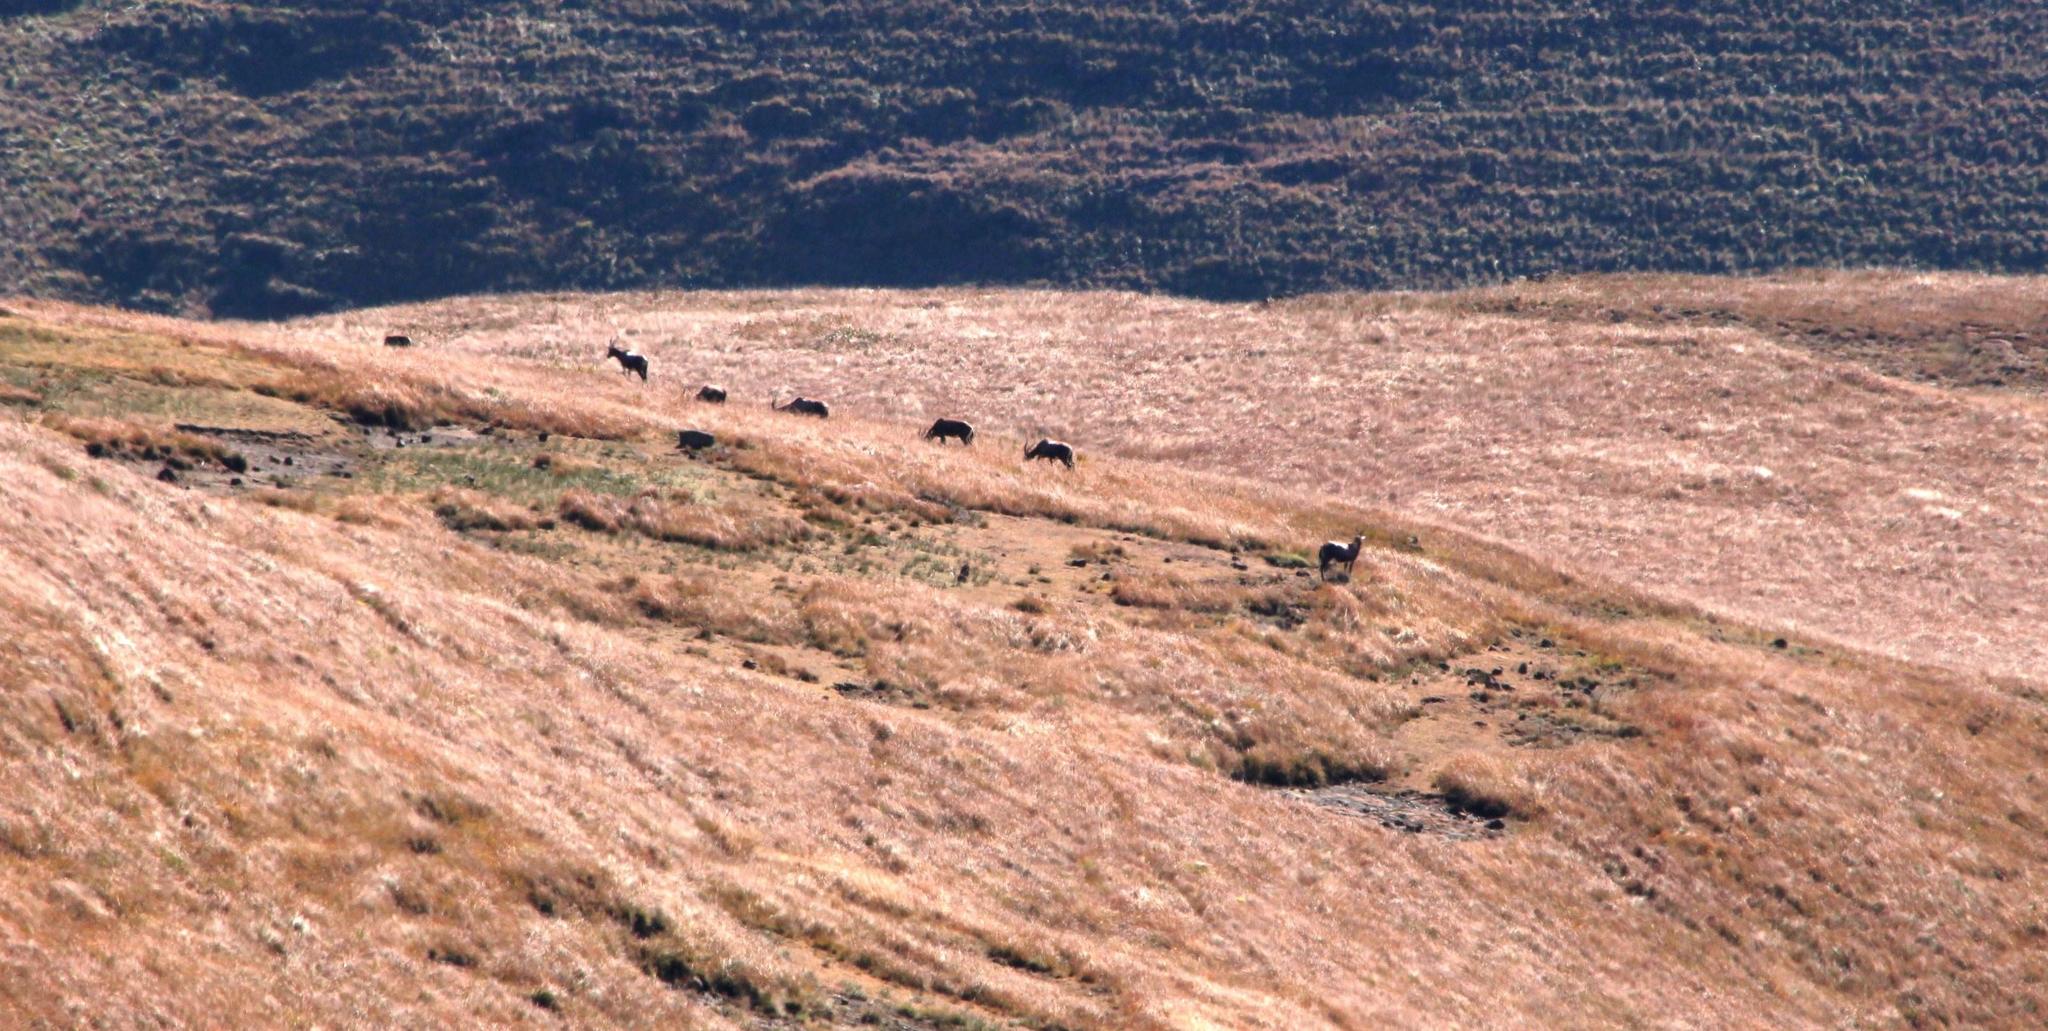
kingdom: Animalia
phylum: Chordata
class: Mammalia
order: Artiodactyla
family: Bovidae
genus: Damaliscus
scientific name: Damaliscus pygargus
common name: Bontebok
